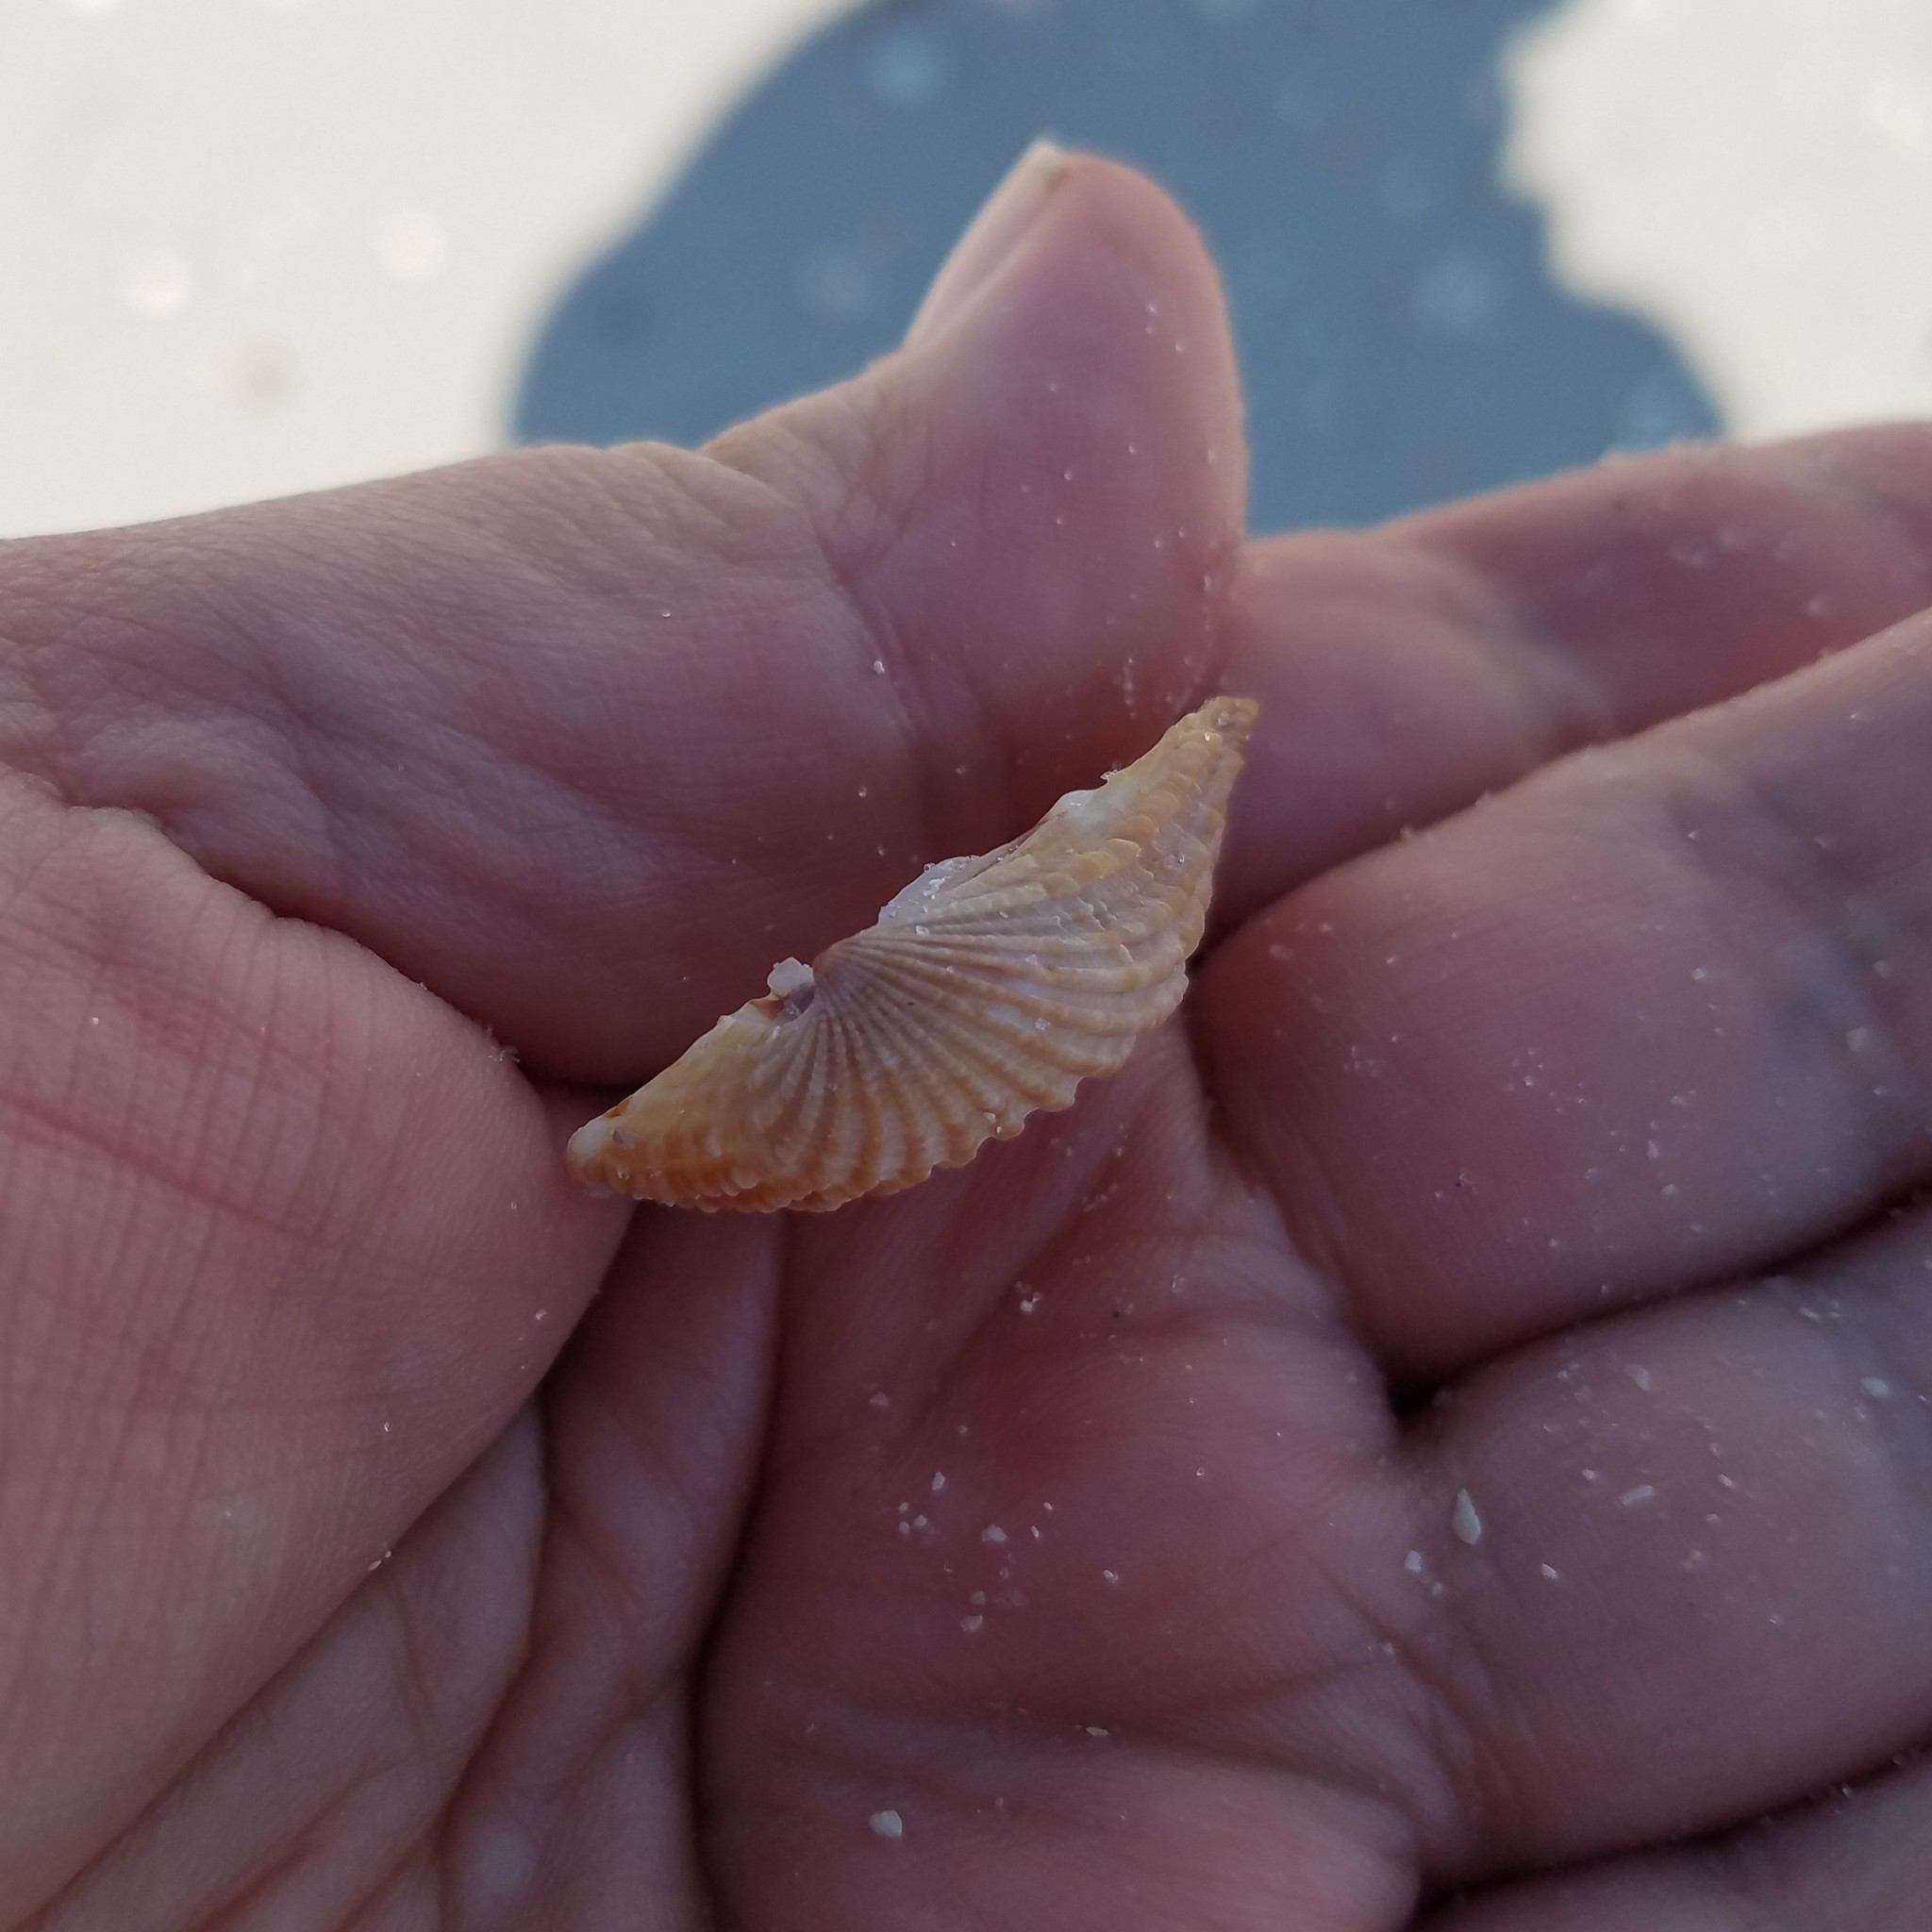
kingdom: Animalia
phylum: Mollusca
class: Bivalvia
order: Carditida
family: Carditidae
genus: Cardites
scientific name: Cardites floridanus
